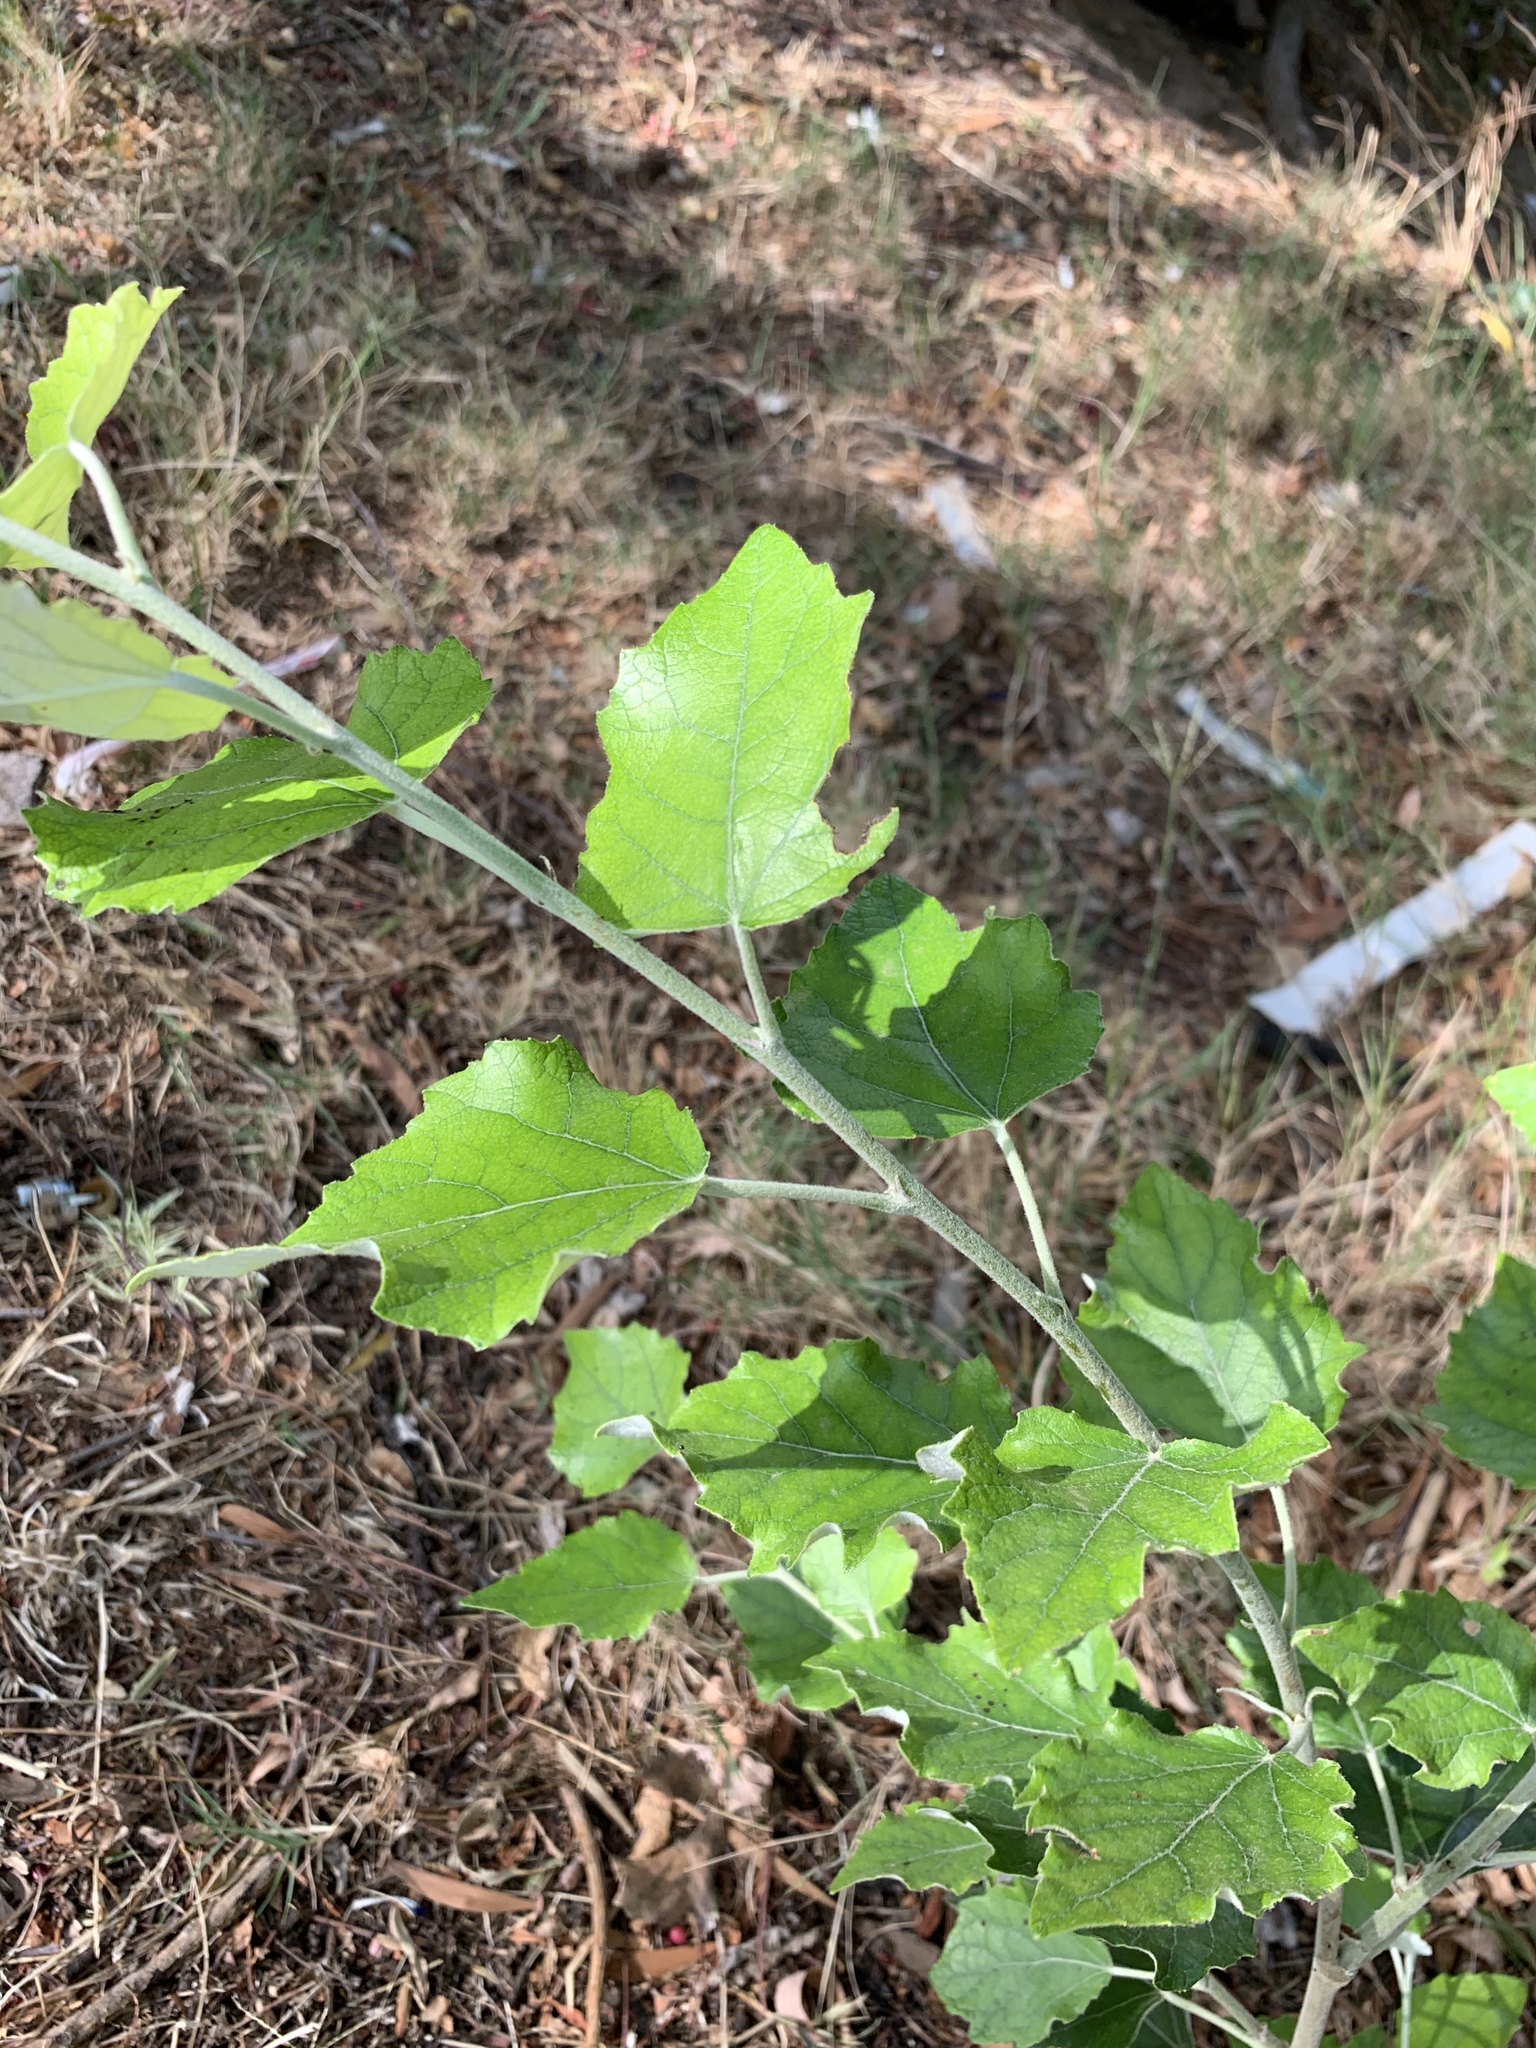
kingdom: Plantae
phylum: Tracheophyta
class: Magnoliopsida
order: Malpighiales
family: Salicaceae
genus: Populus
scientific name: Populus canescens
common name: Gray poplar
